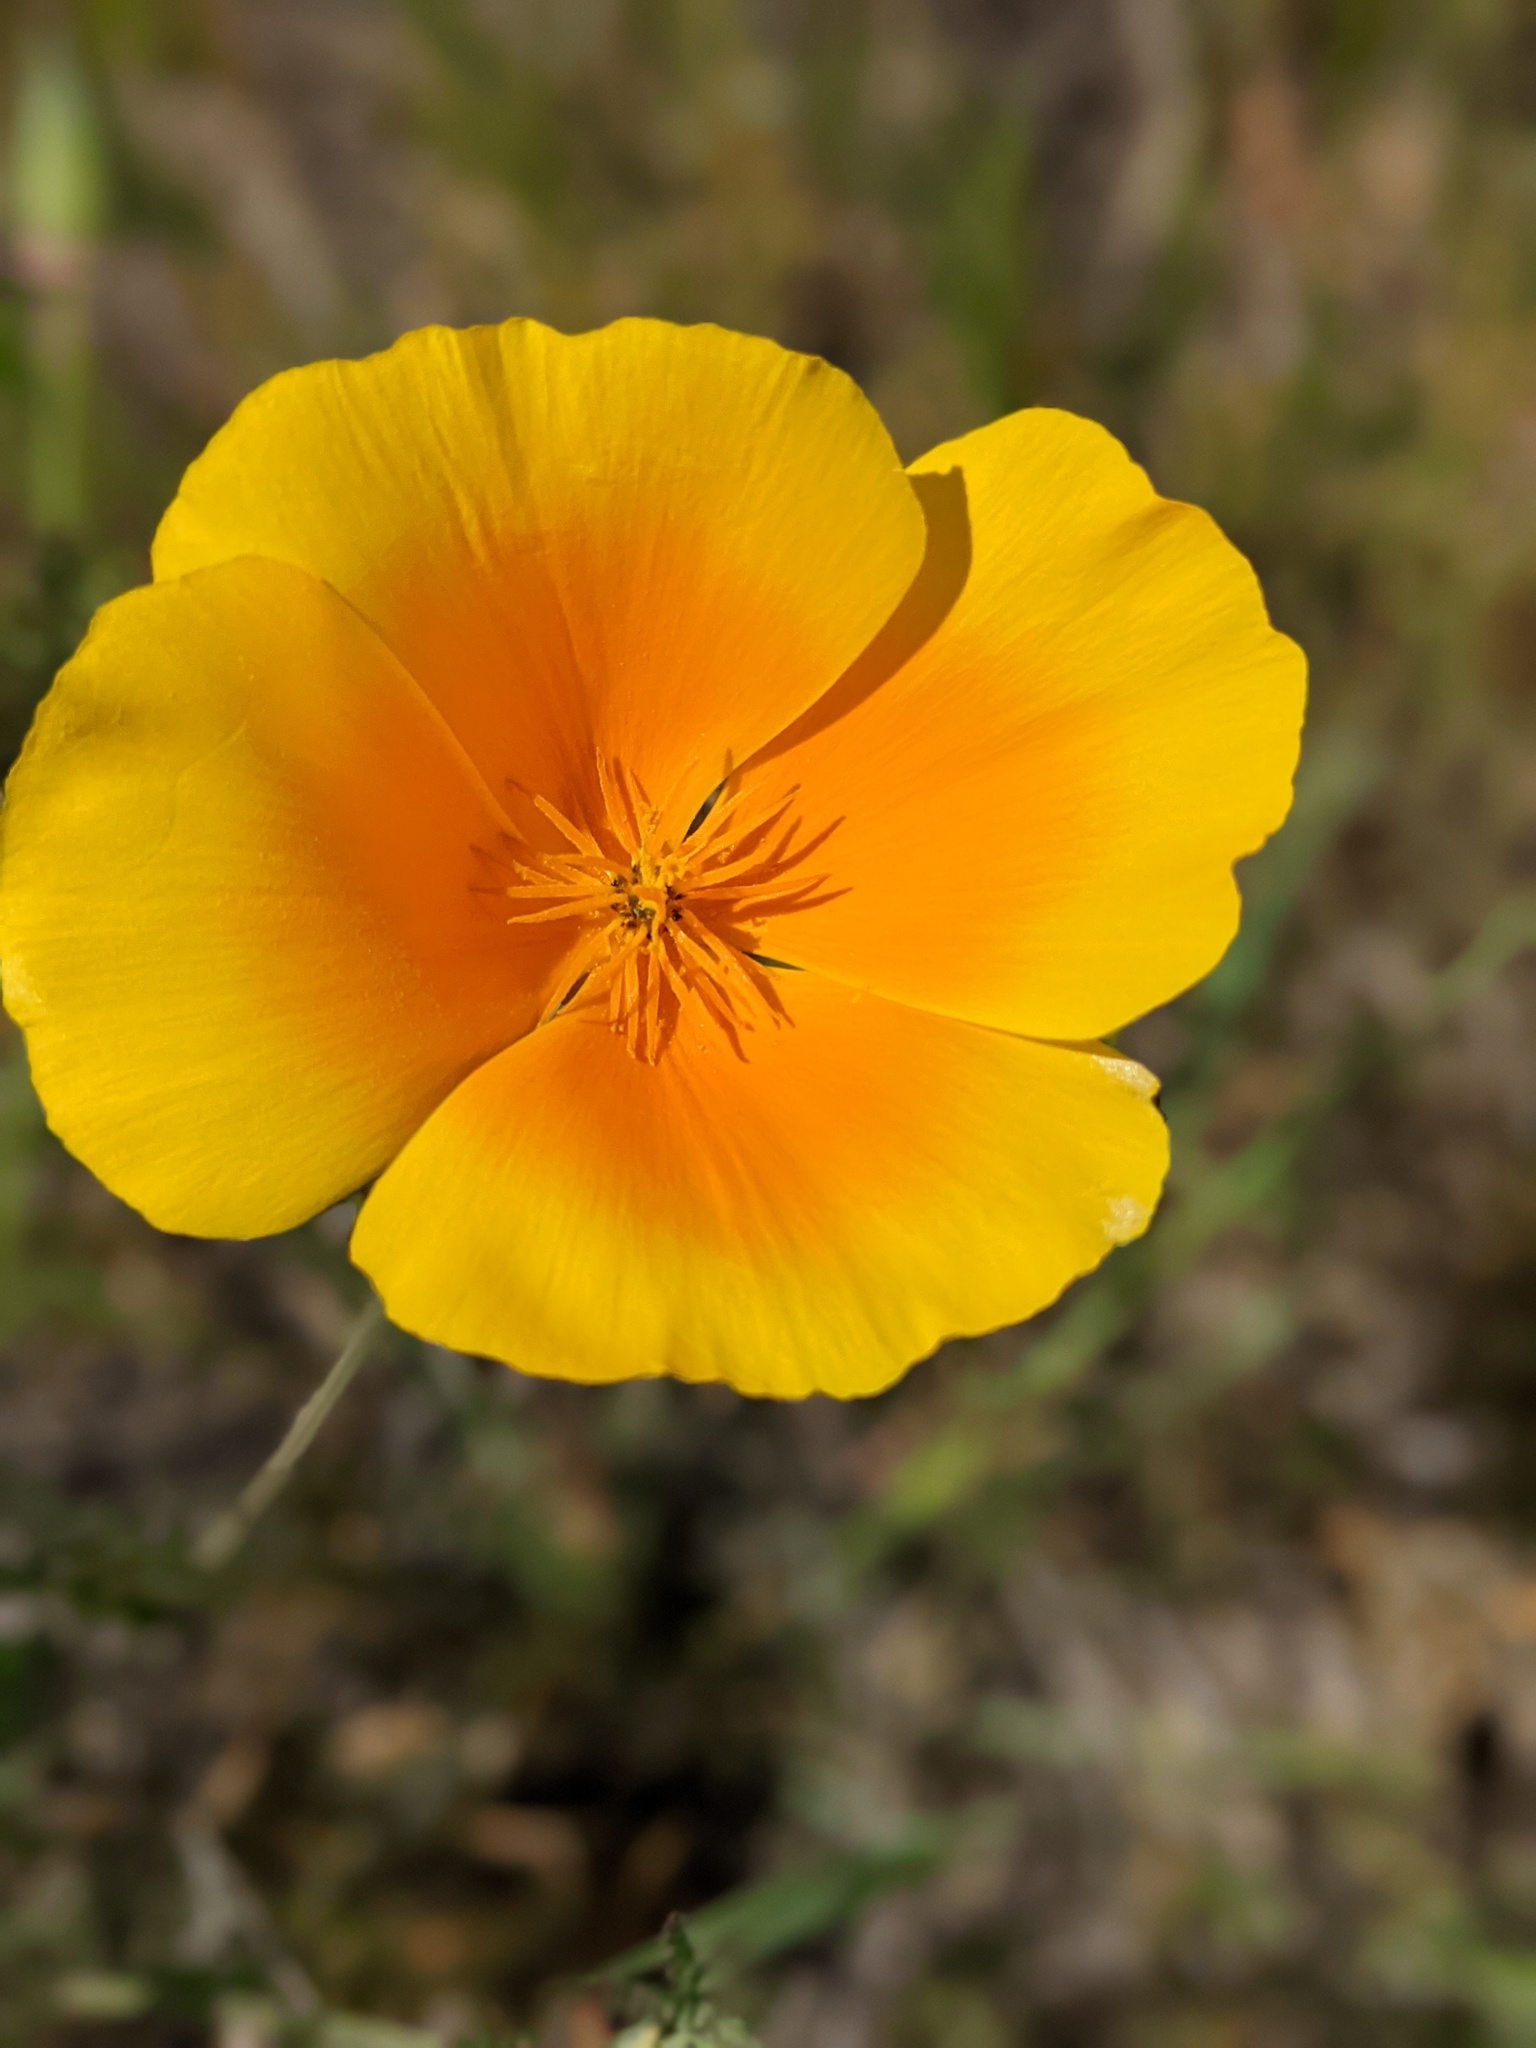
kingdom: Plantae
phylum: Tracheophyta
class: Magnoliopsida
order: Ranunculales
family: Papaveraceae
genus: Eschscholzia
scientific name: Eschscholzia californica
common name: California poppy
